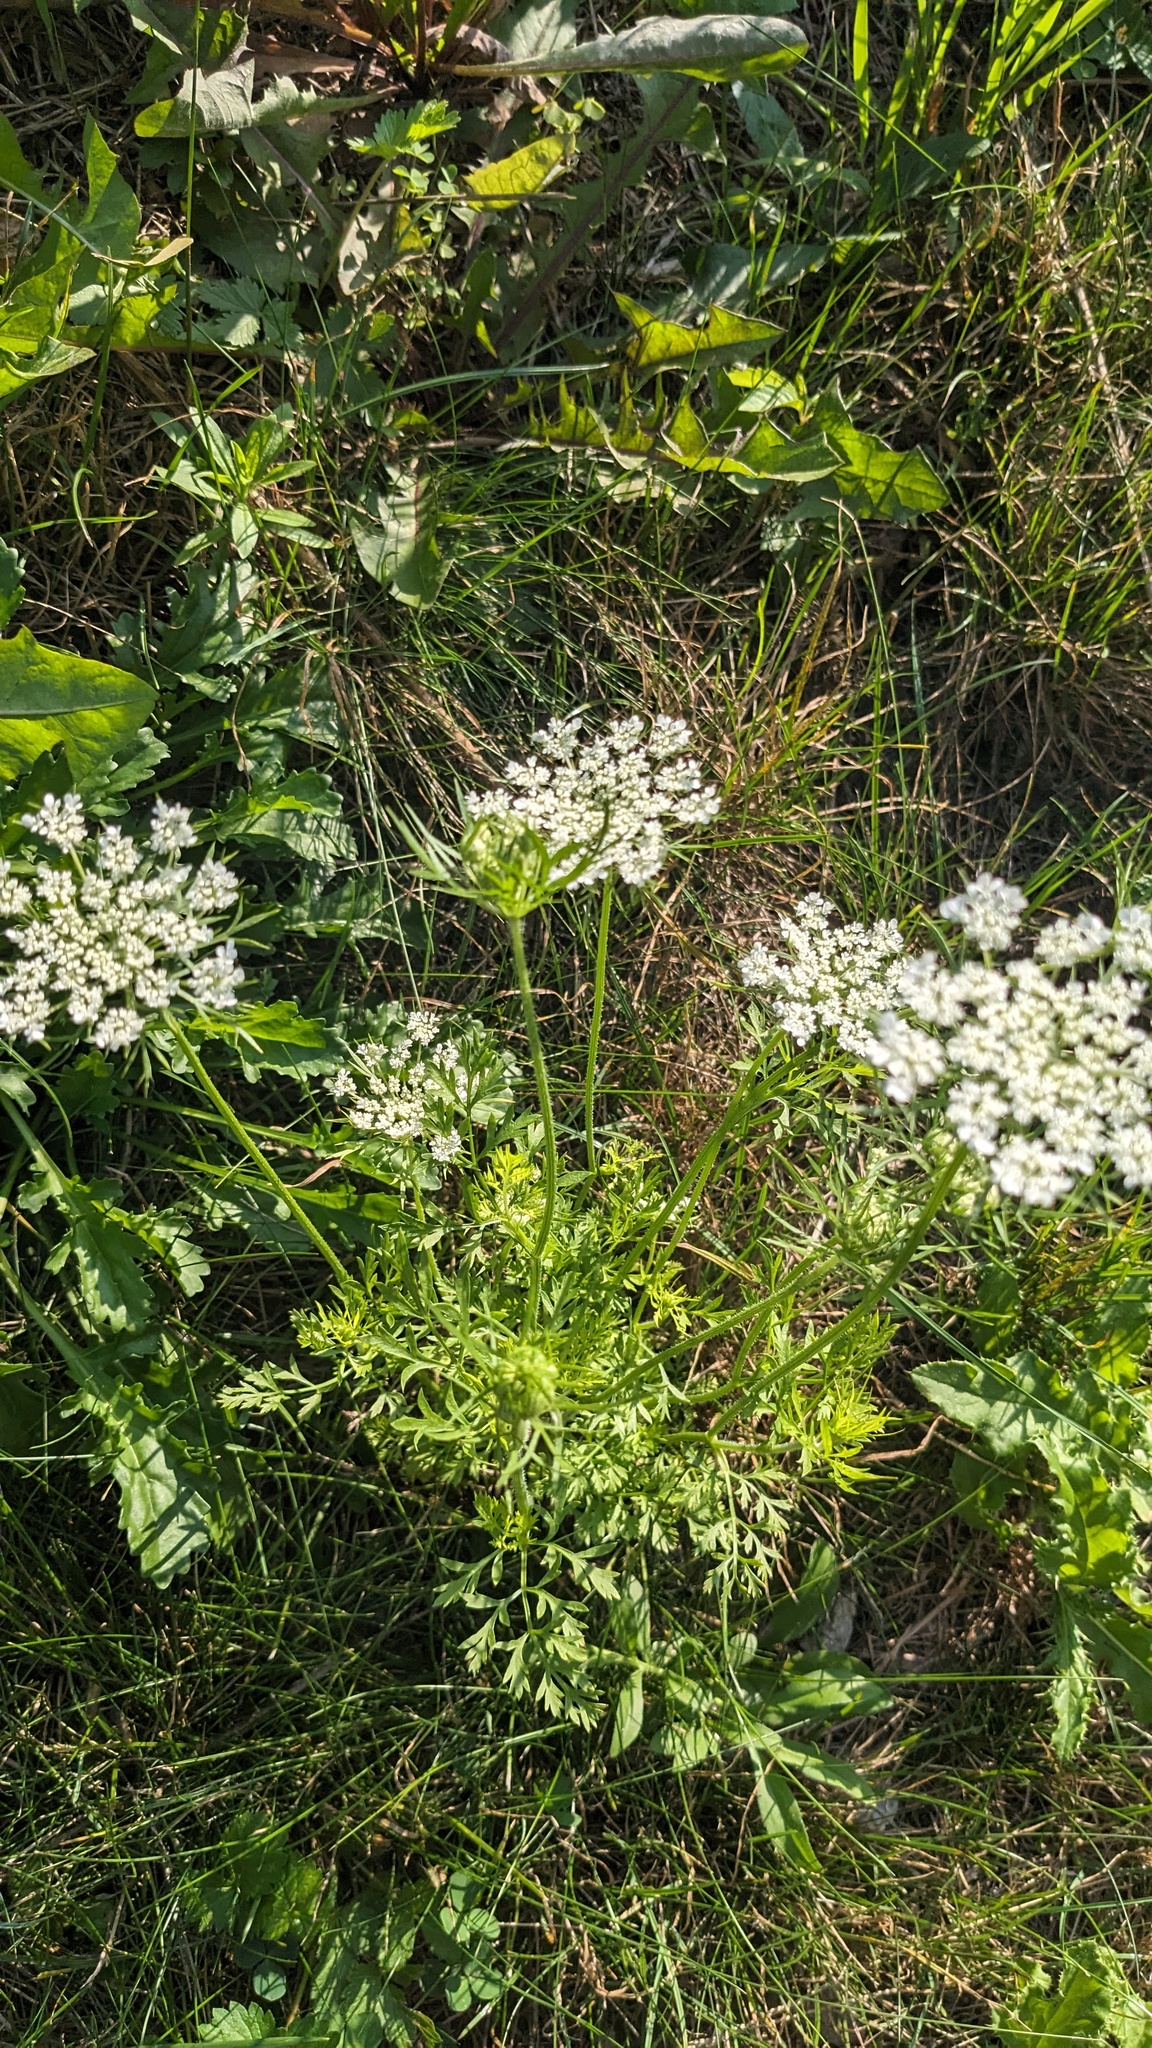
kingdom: Plantae
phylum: Tracheophyta
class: Magnoliopsida
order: Apiales
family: Apiaceae
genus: Daucus
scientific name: Daucus carota
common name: Wild carrot
